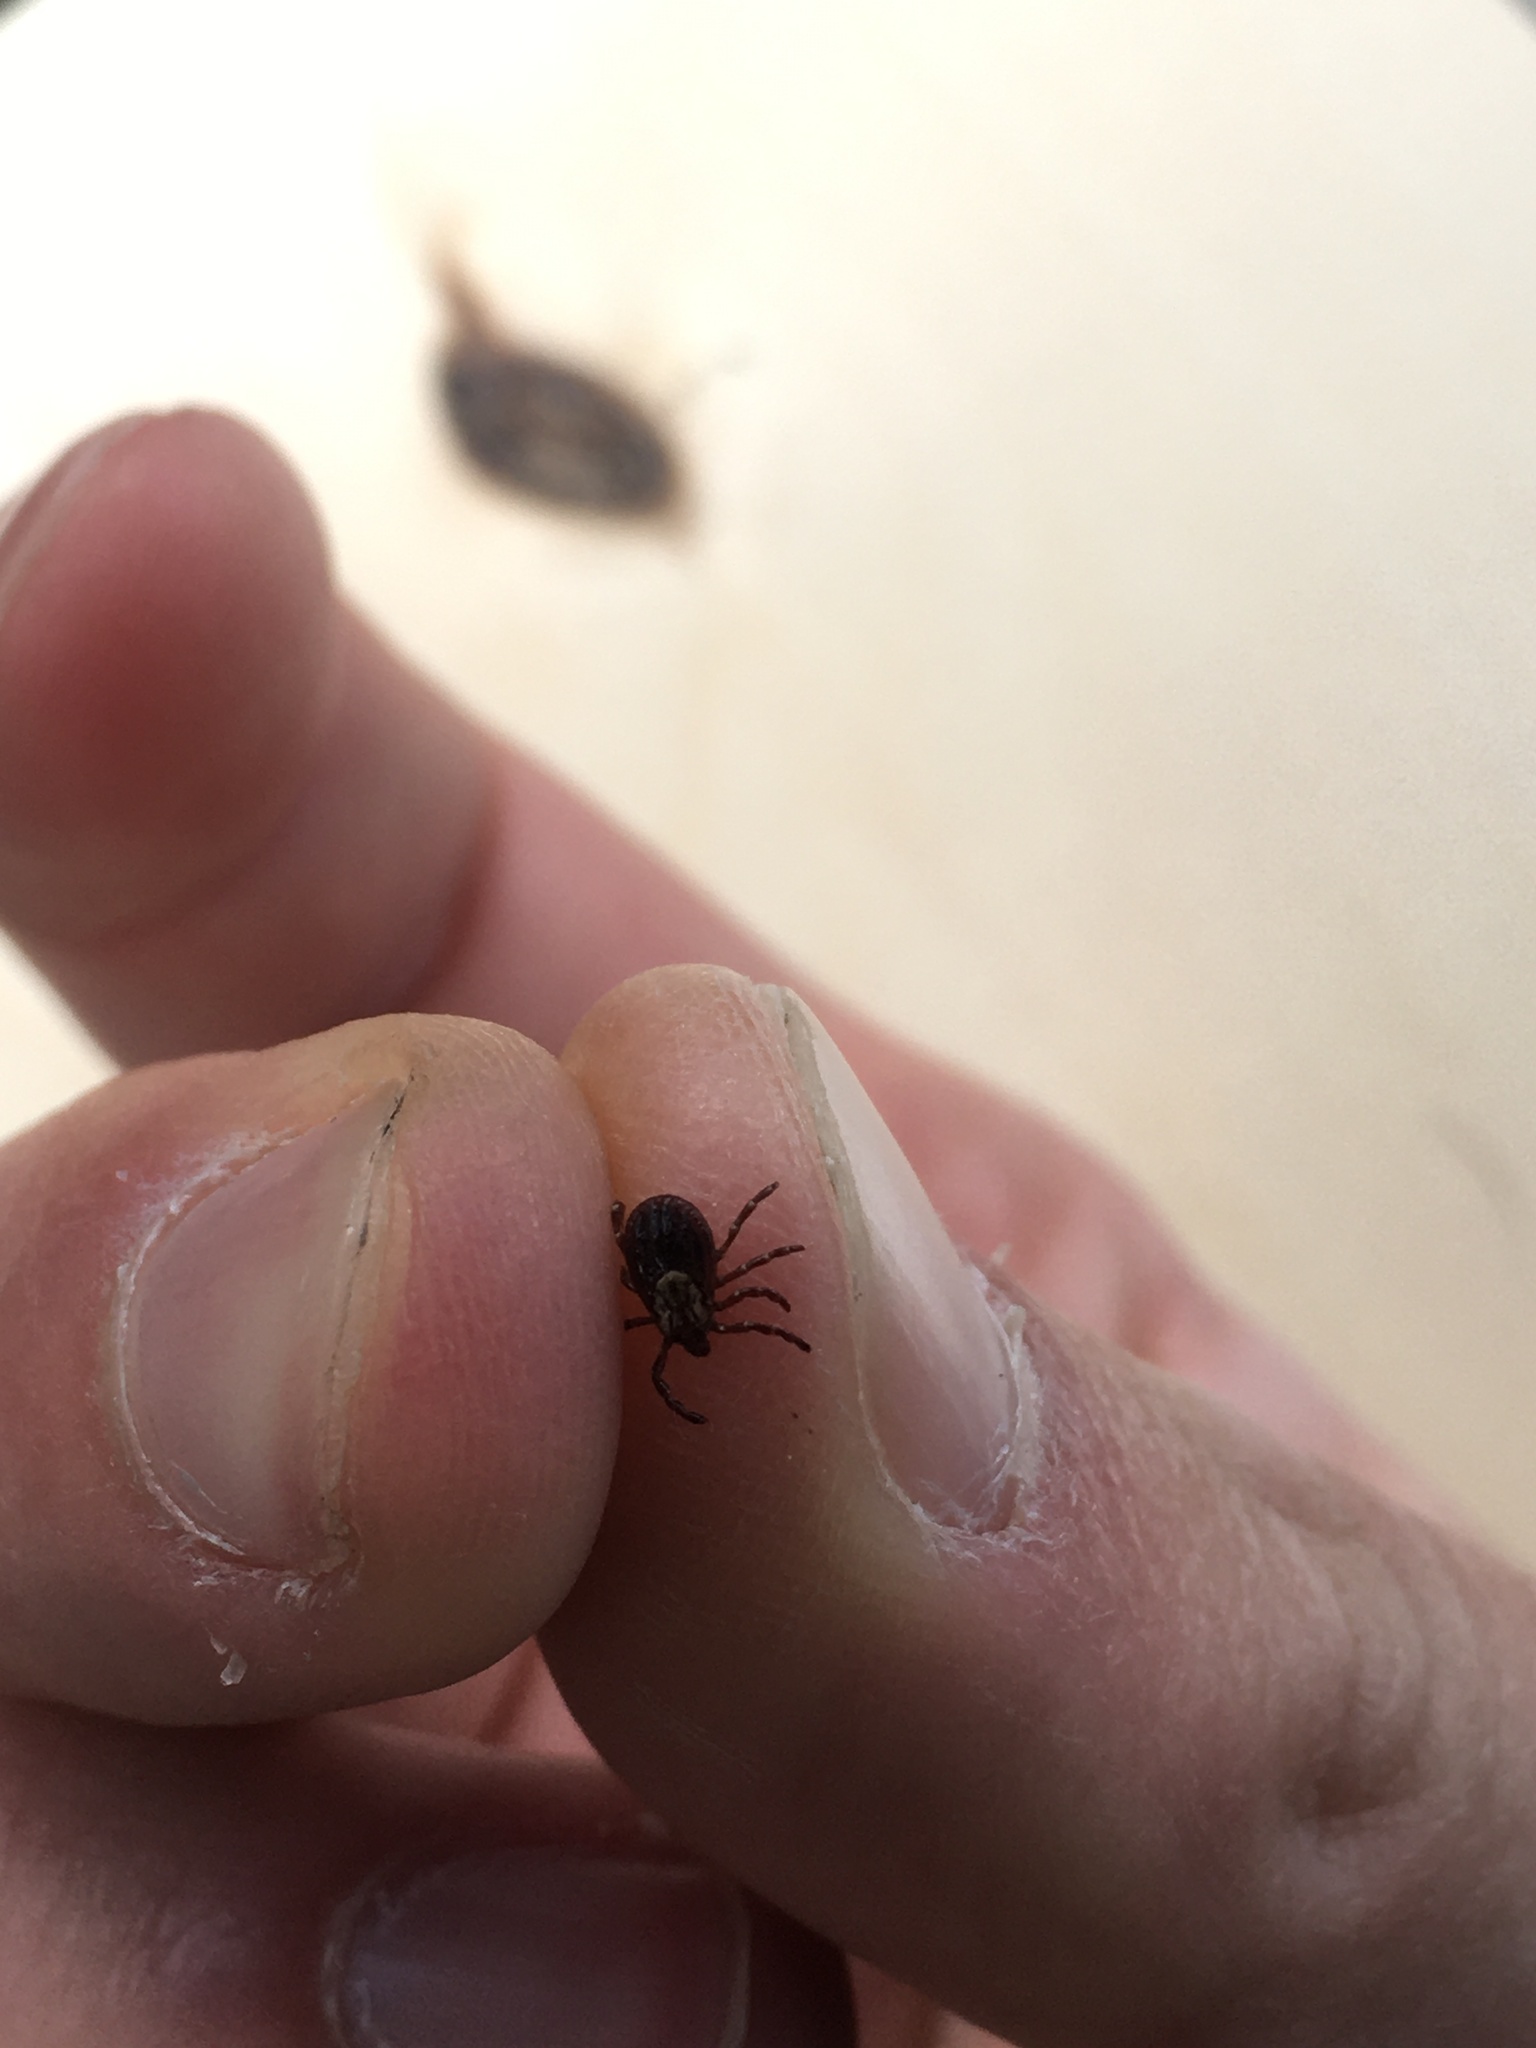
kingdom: Animalia
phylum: Arthropoda
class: Arachnida
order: Ixodida
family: Ixodidae
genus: Dermacentor
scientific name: Dermacentor variabilis
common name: American dog tick
